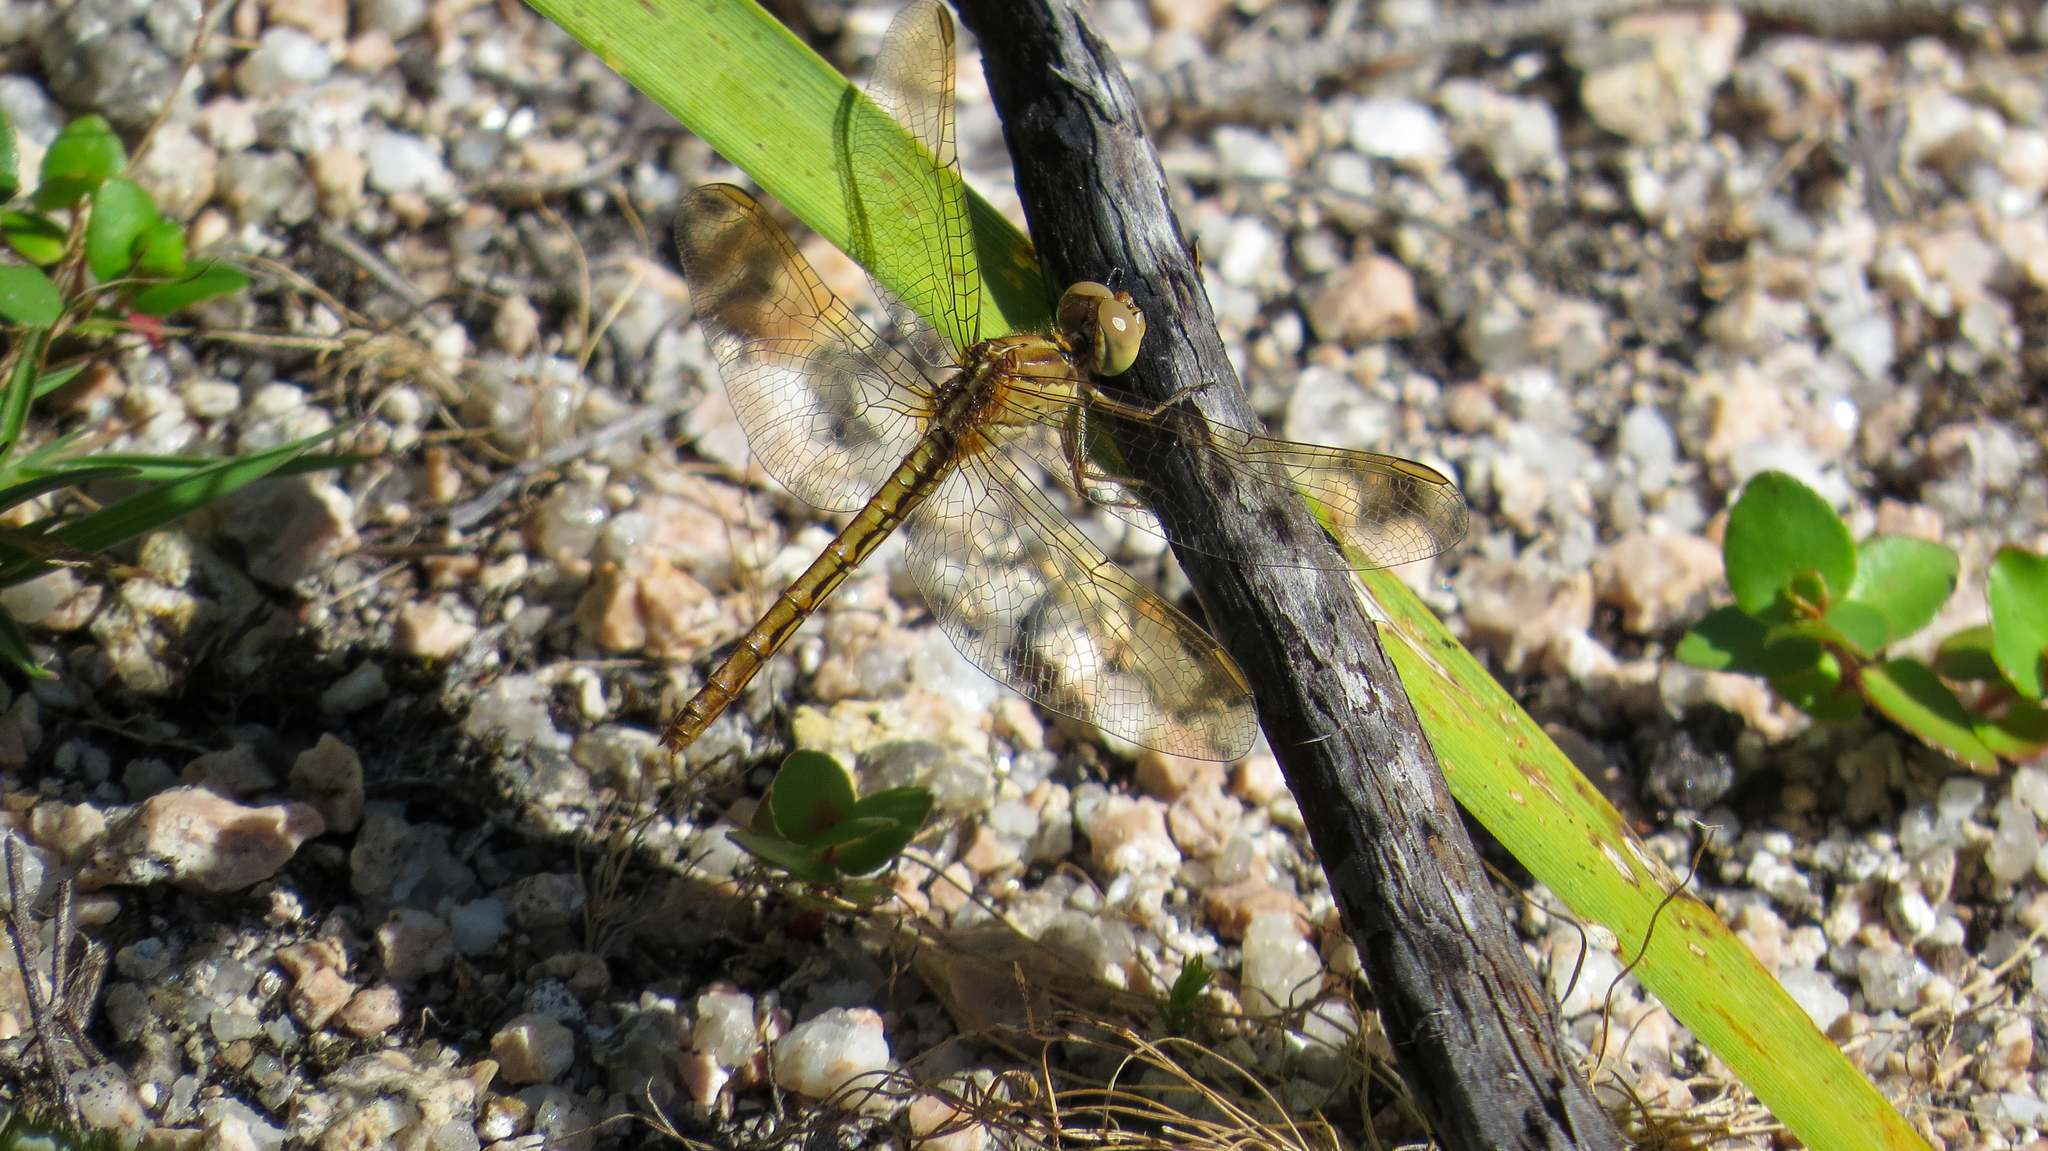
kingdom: Animalia
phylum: Arthropoda
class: Insecta
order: Odonata
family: Libellulidae
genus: Diplacodes
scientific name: Diplacodes haematodes
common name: Scarlet percher
